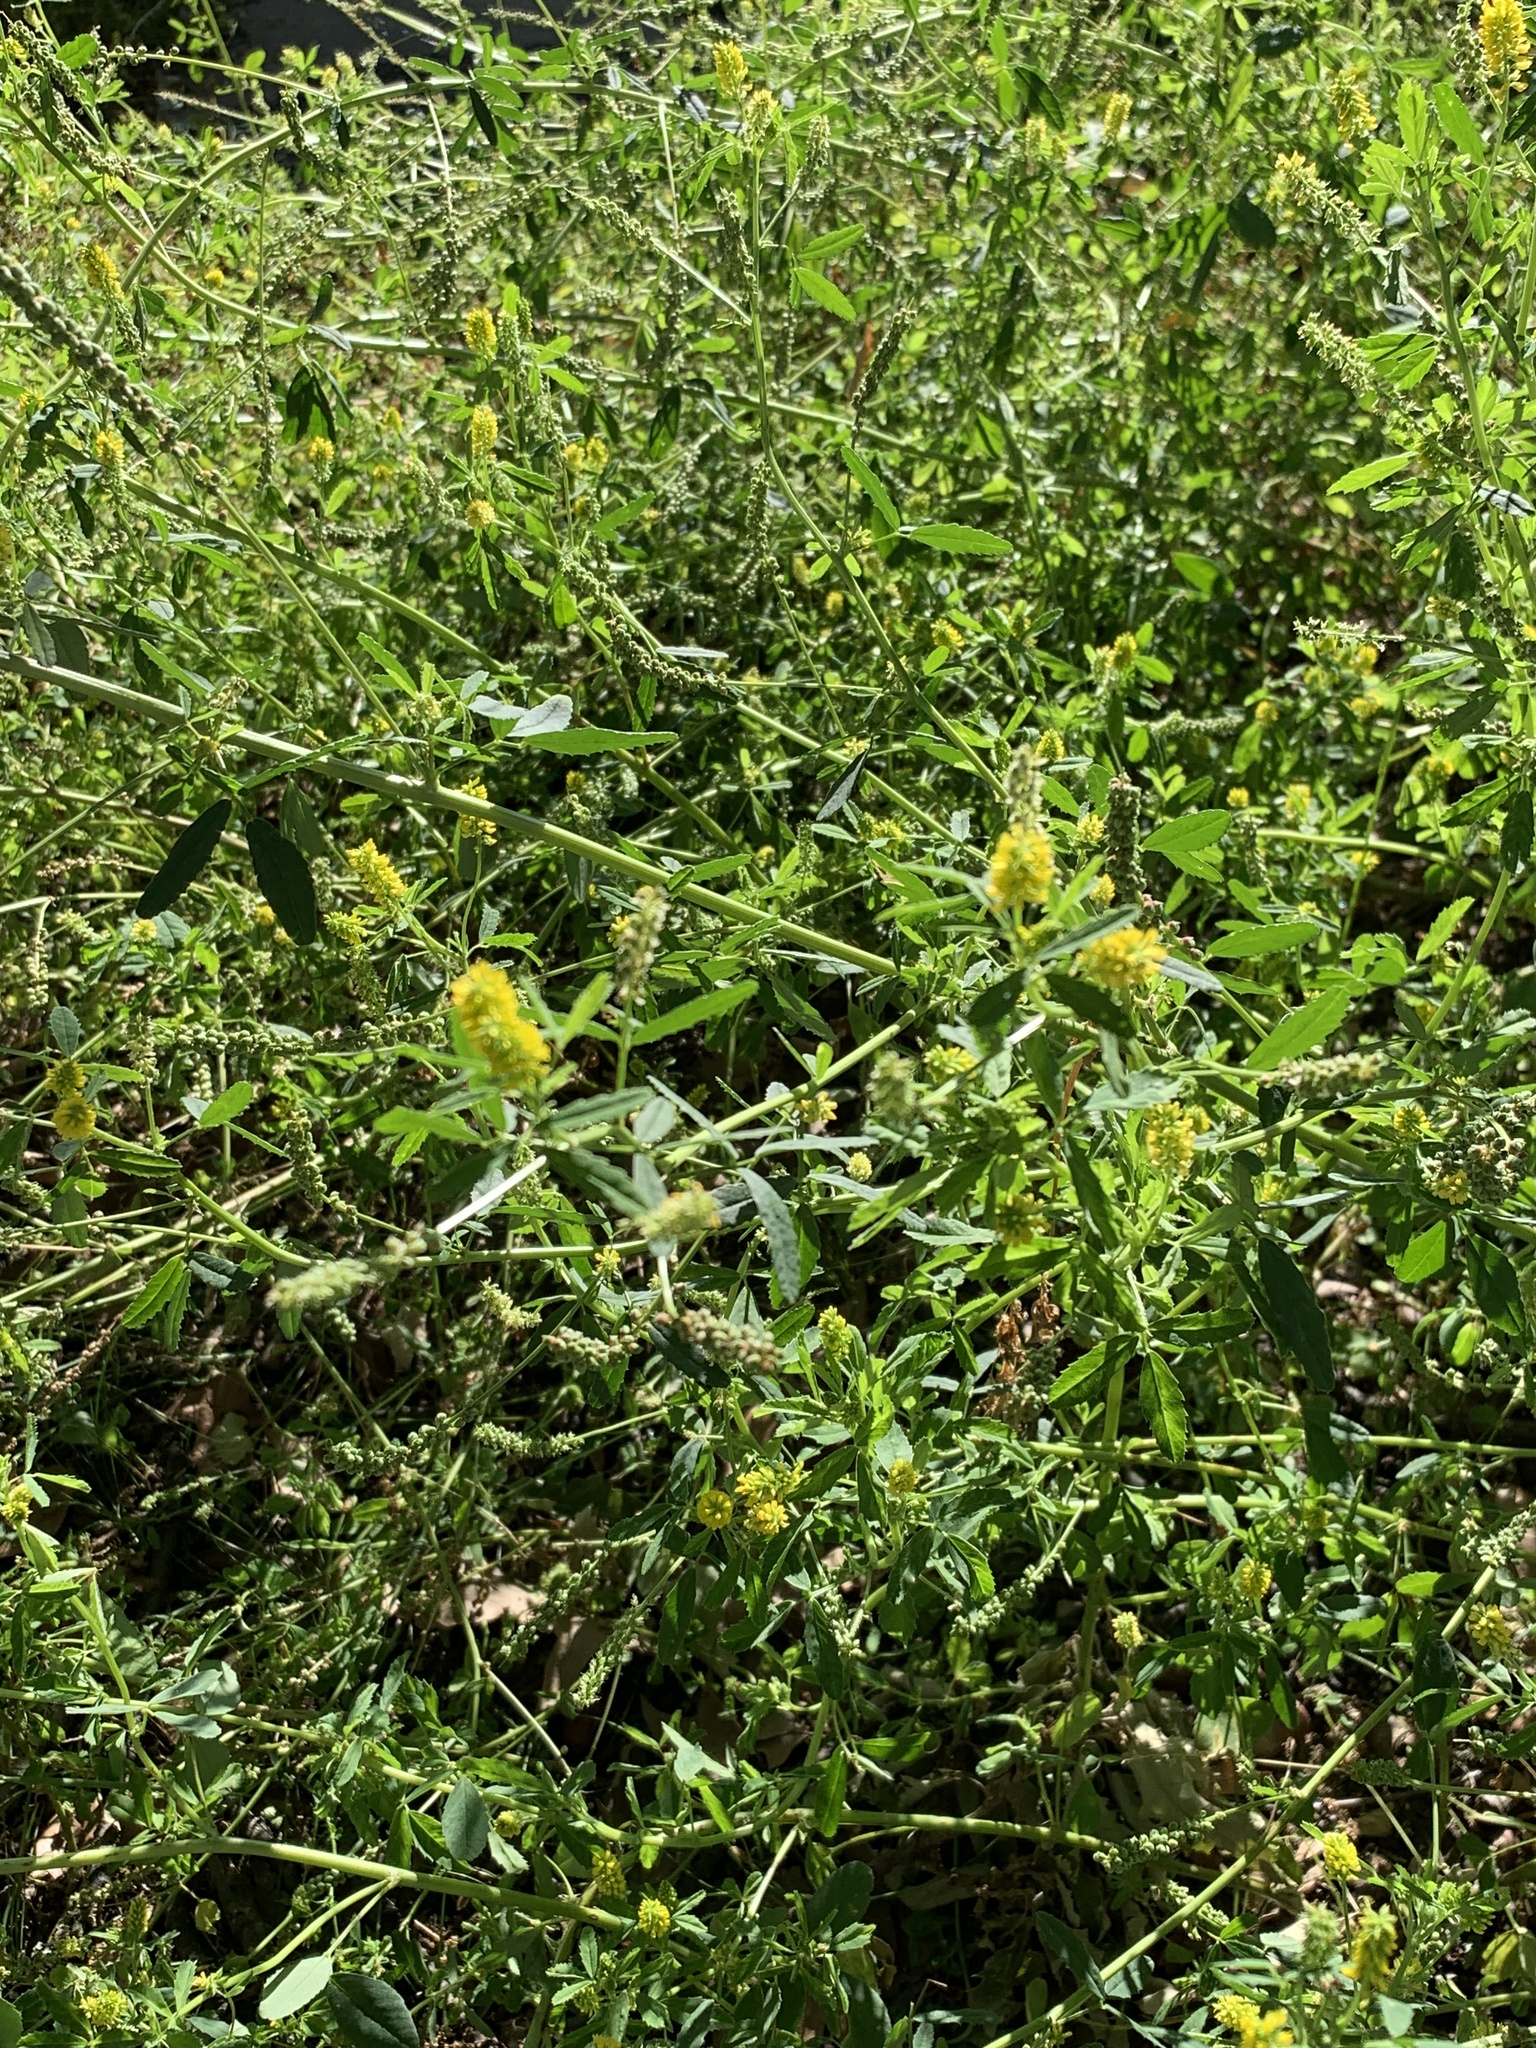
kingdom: Plantae
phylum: Tracheophyta
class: Magnoliopsida
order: Fabales
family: Fabaceae
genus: Melilotus
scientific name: Melilotus indicus
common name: Small melilot
